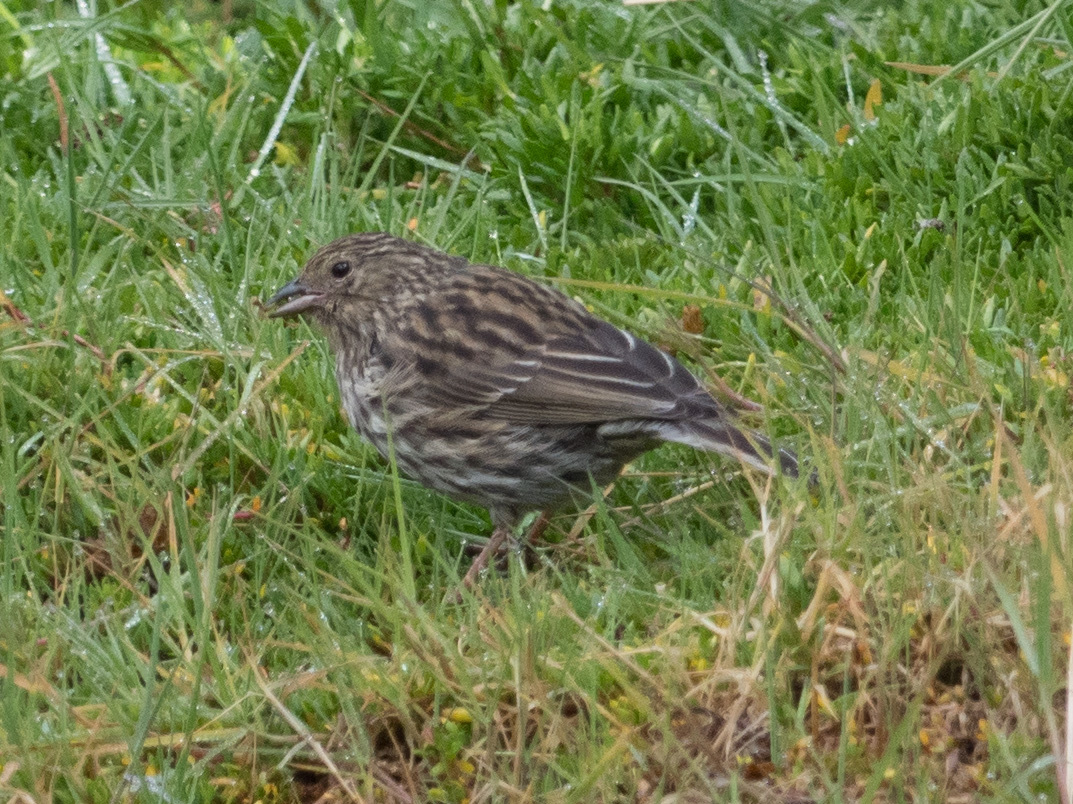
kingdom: Animalia
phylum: Chordata
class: Aves
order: Passeriformes
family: Thraupidae
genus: Geospizopsis
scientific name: Geospizopsis unicolor
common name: Plumbeous sierra-finch
